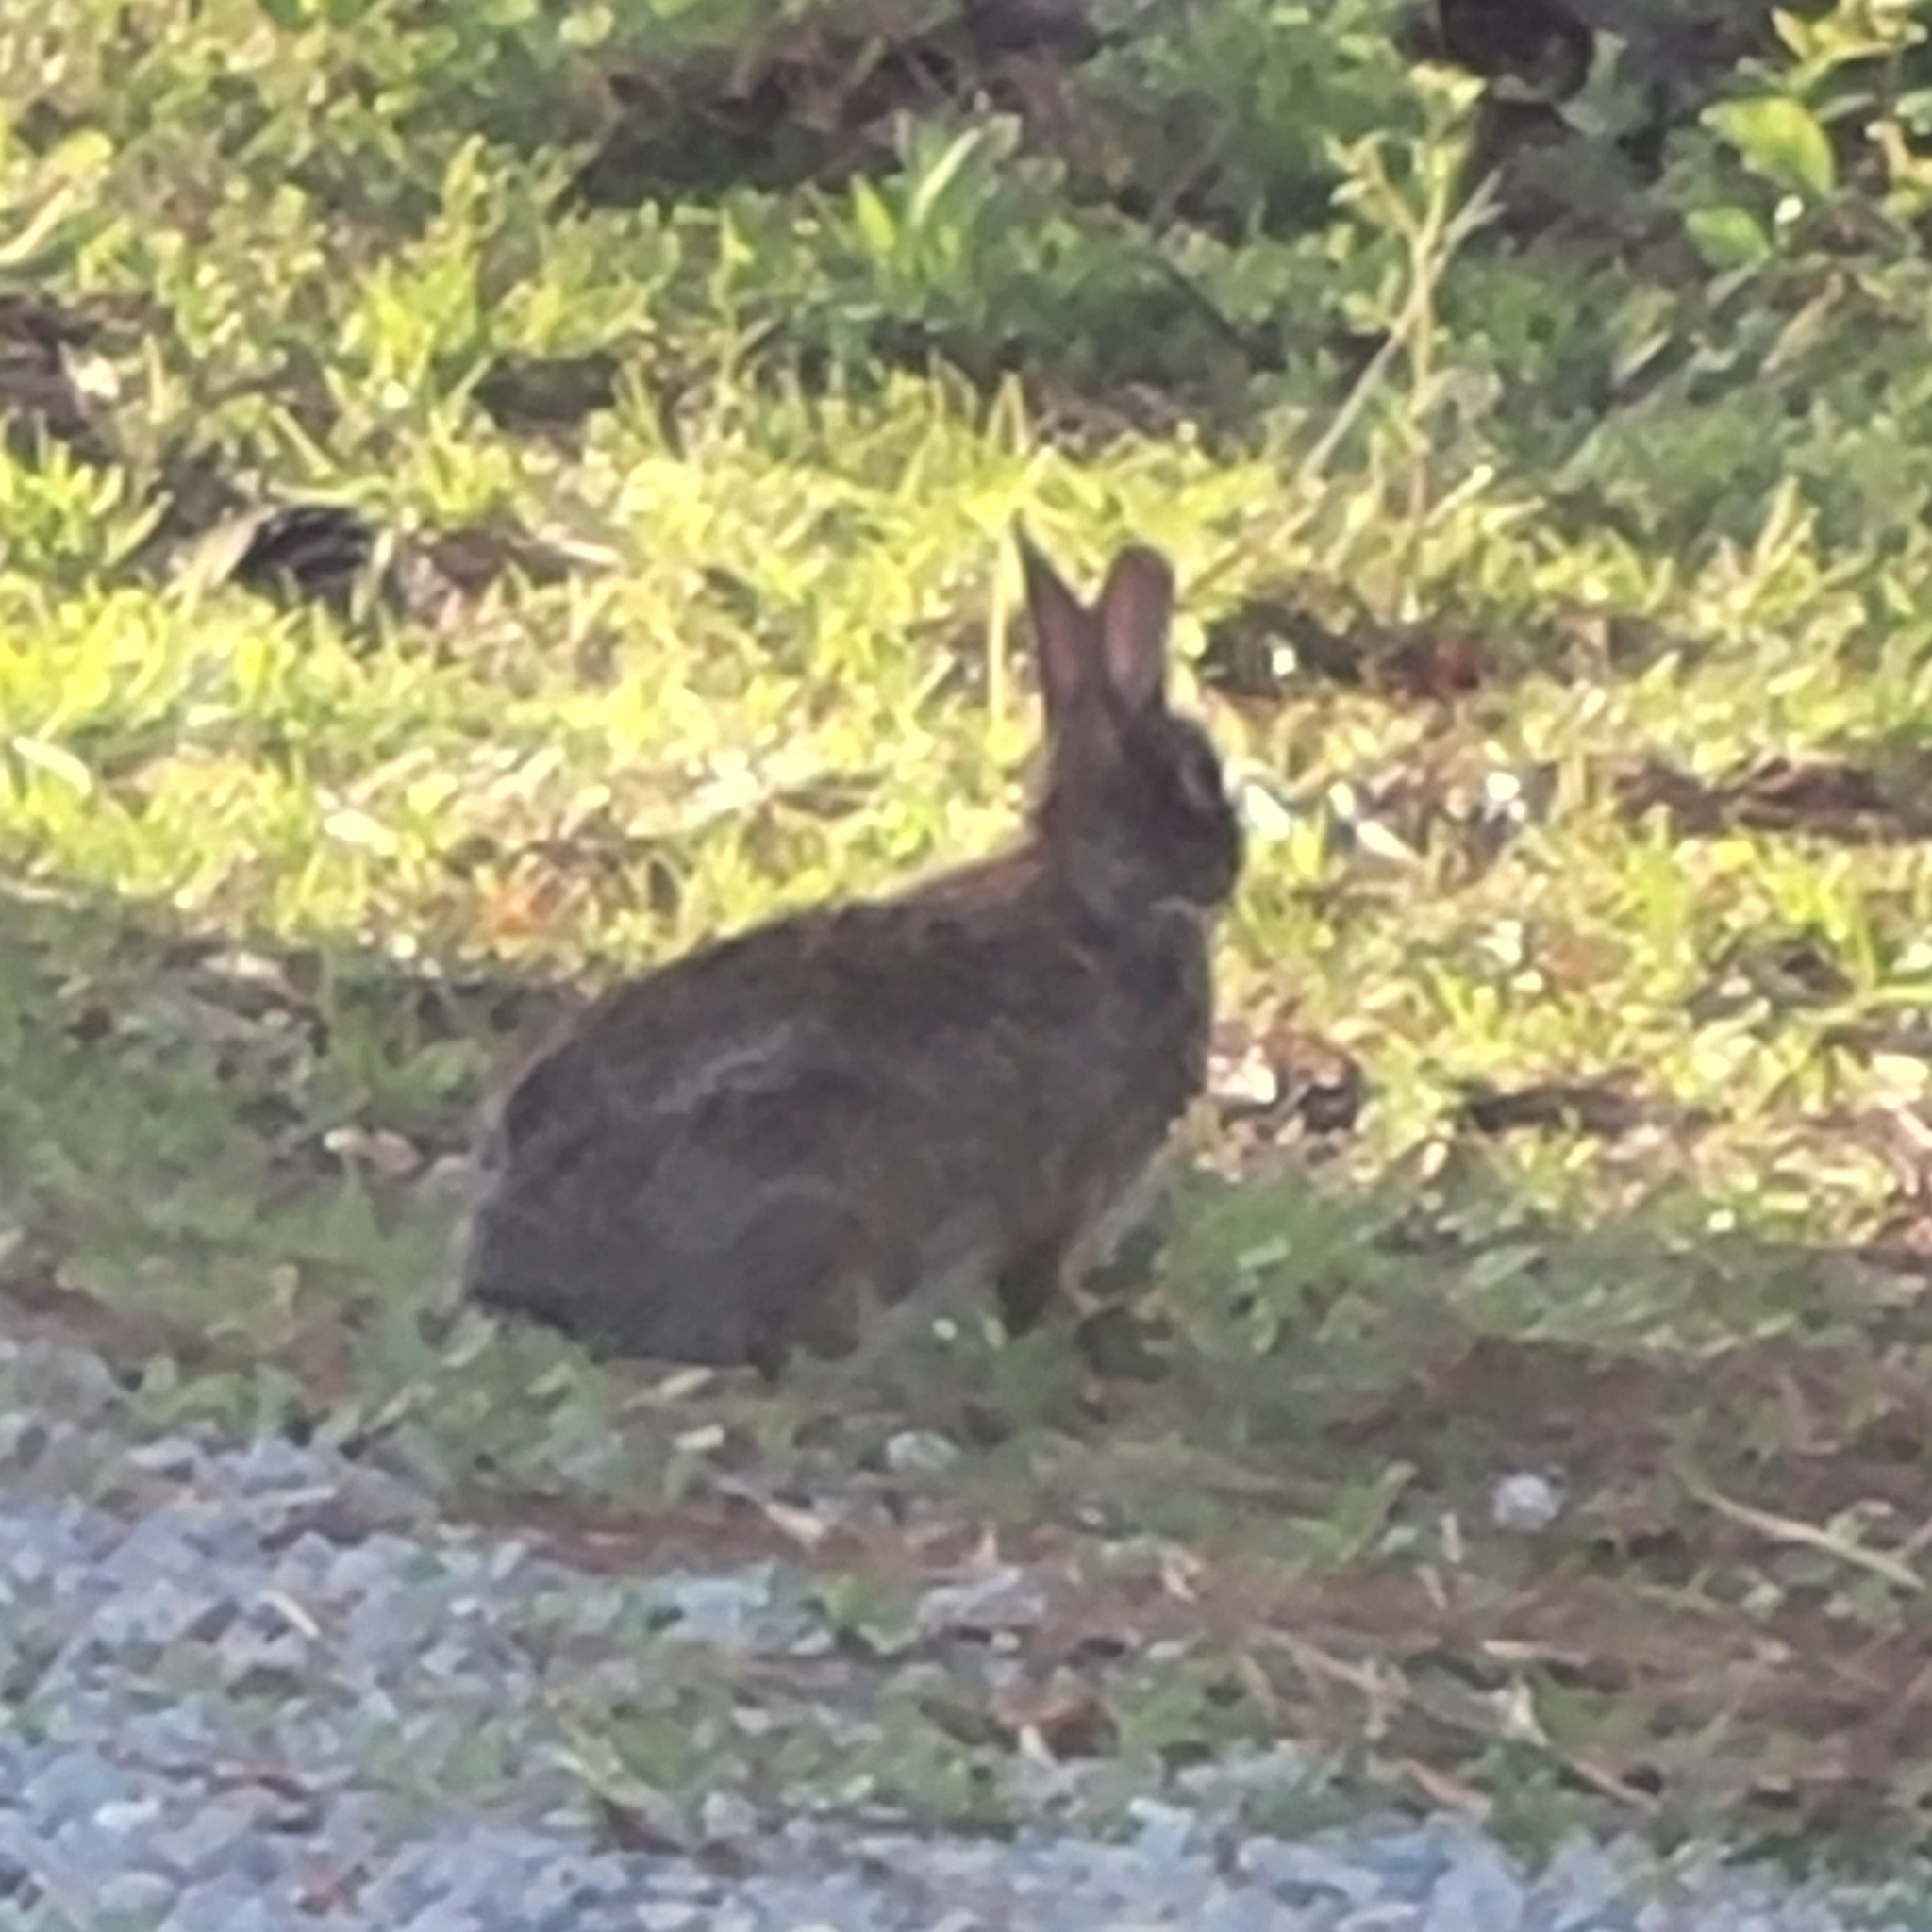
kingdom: Animalia
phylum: Chordata
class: Mammalia
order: Lagomorpha
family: Leporidae
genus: Sylvilagus
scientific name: Sylvilagus floridanus
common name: Eastern cottontail
